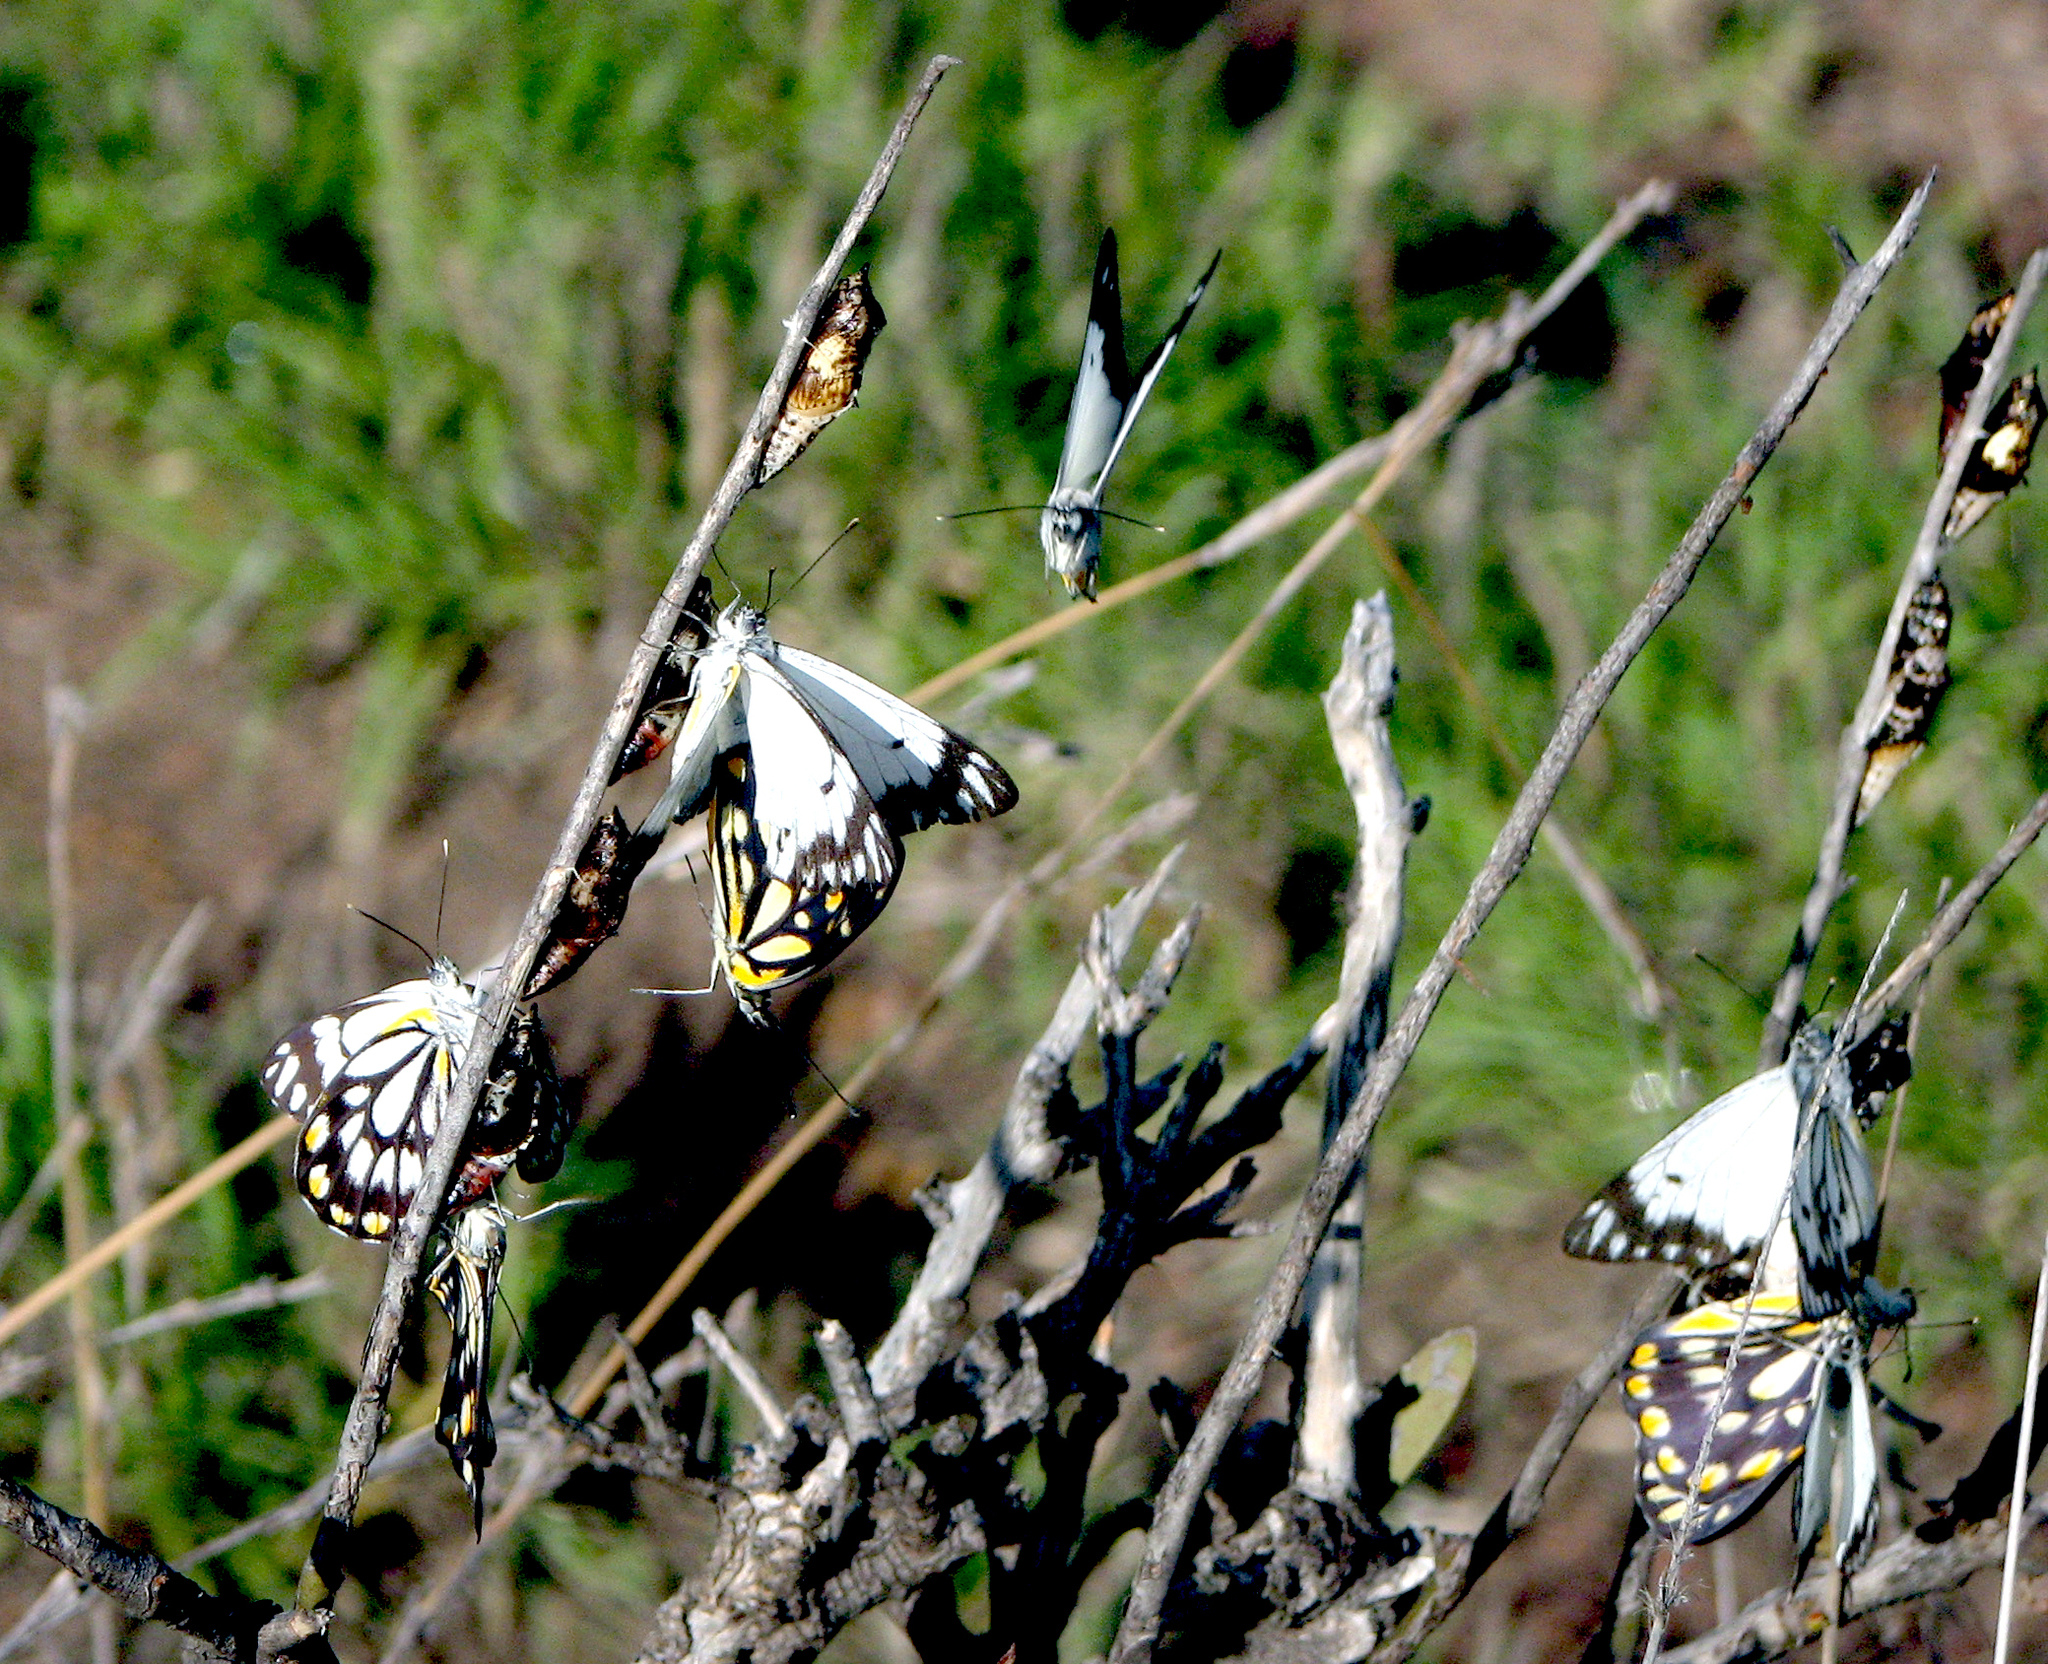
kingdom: Animalia
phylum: Arthropoda
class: Insecta
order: Lepidoptera
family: Pieridae
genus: Belenois
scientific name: Belenois java
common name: Caper white
